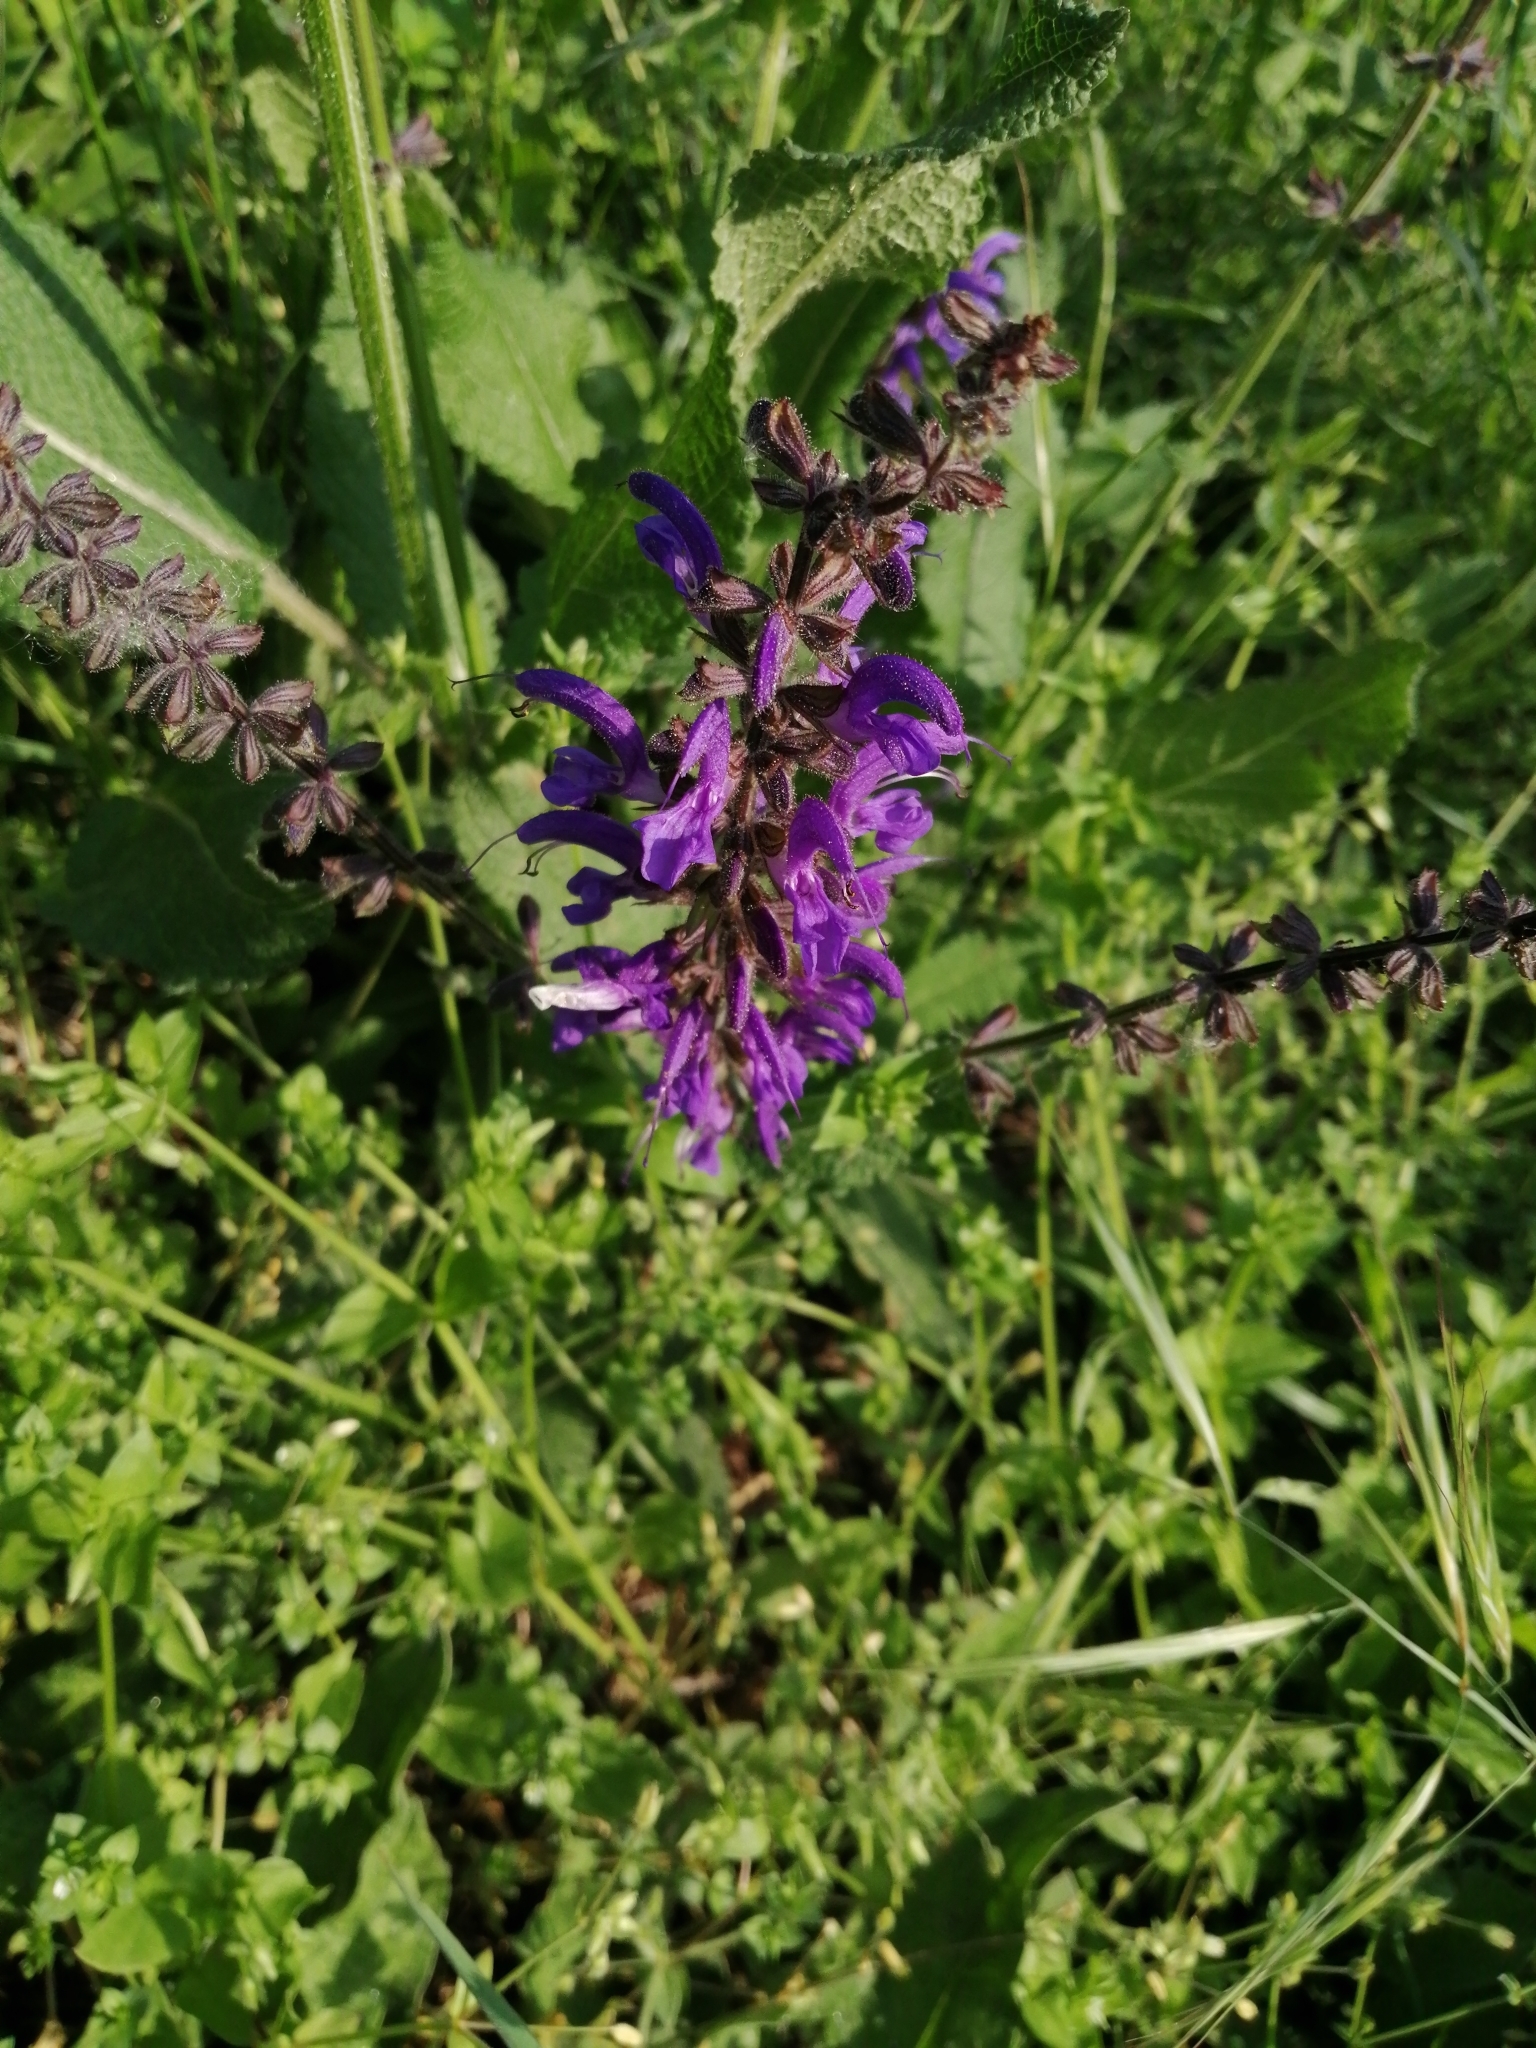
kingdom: Plantae
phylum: Tracheophyta
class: Magnoliopsida
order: Lamiales
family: Lamiaceae
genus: Salvia
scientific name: Salvia pratensis
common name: Meadow sage
